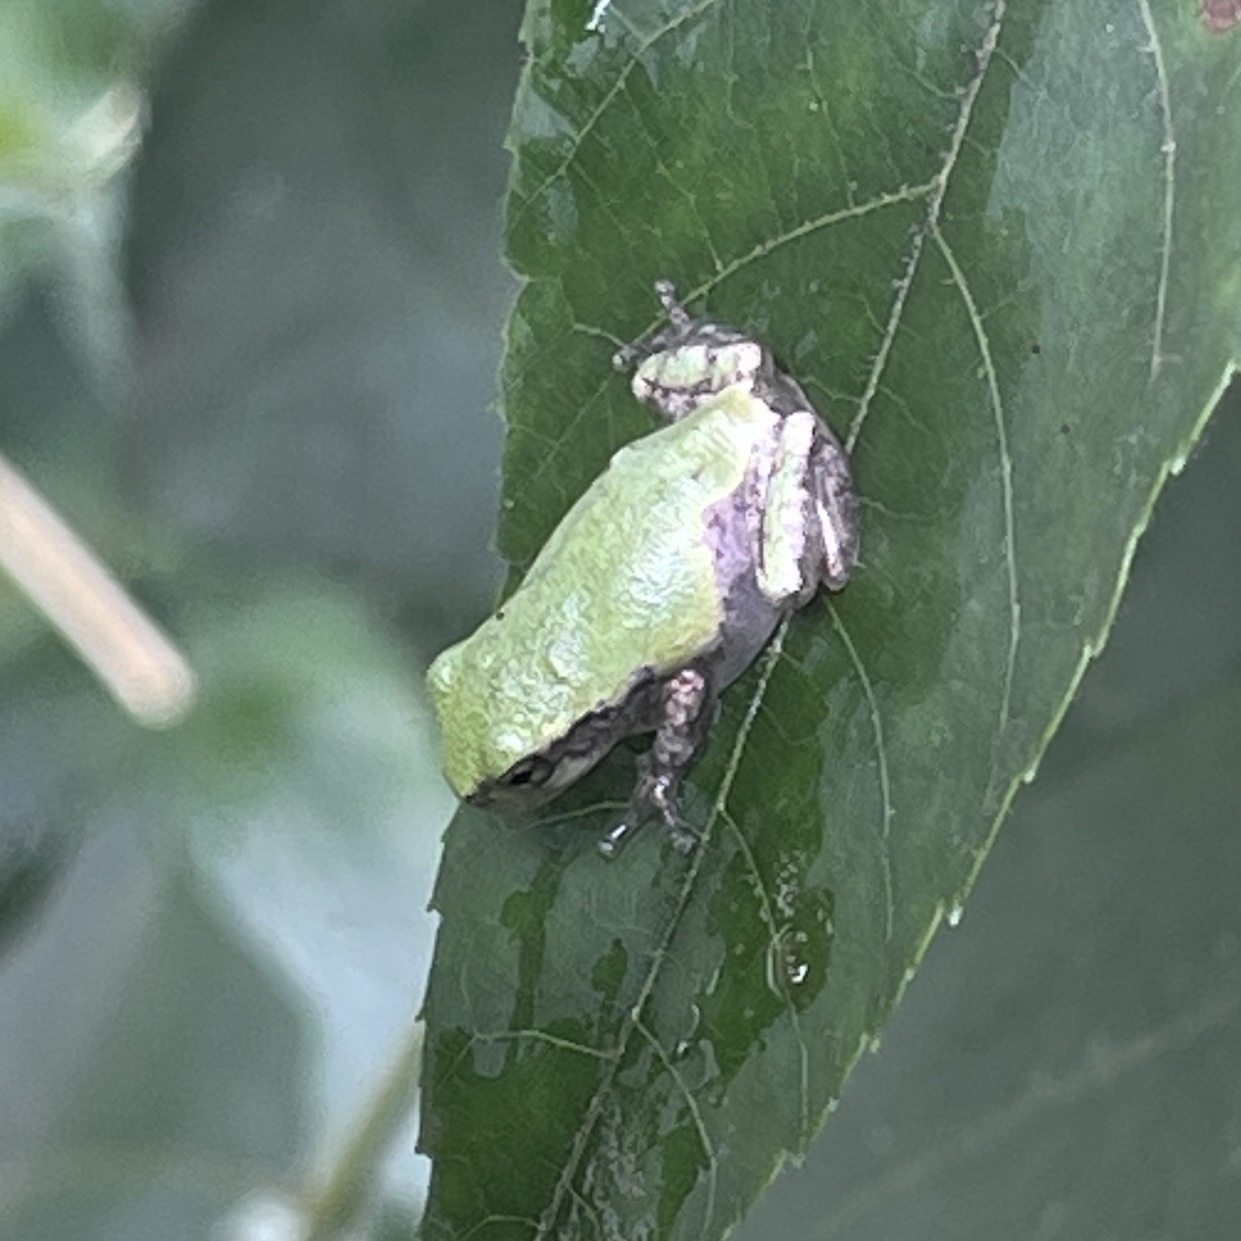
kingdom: Animalia
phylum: Chordata
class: Amphibia
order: Anura
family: Hylidae
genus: Dryophytes
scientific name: Dryophytes versicolor
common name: Gray treefrog
